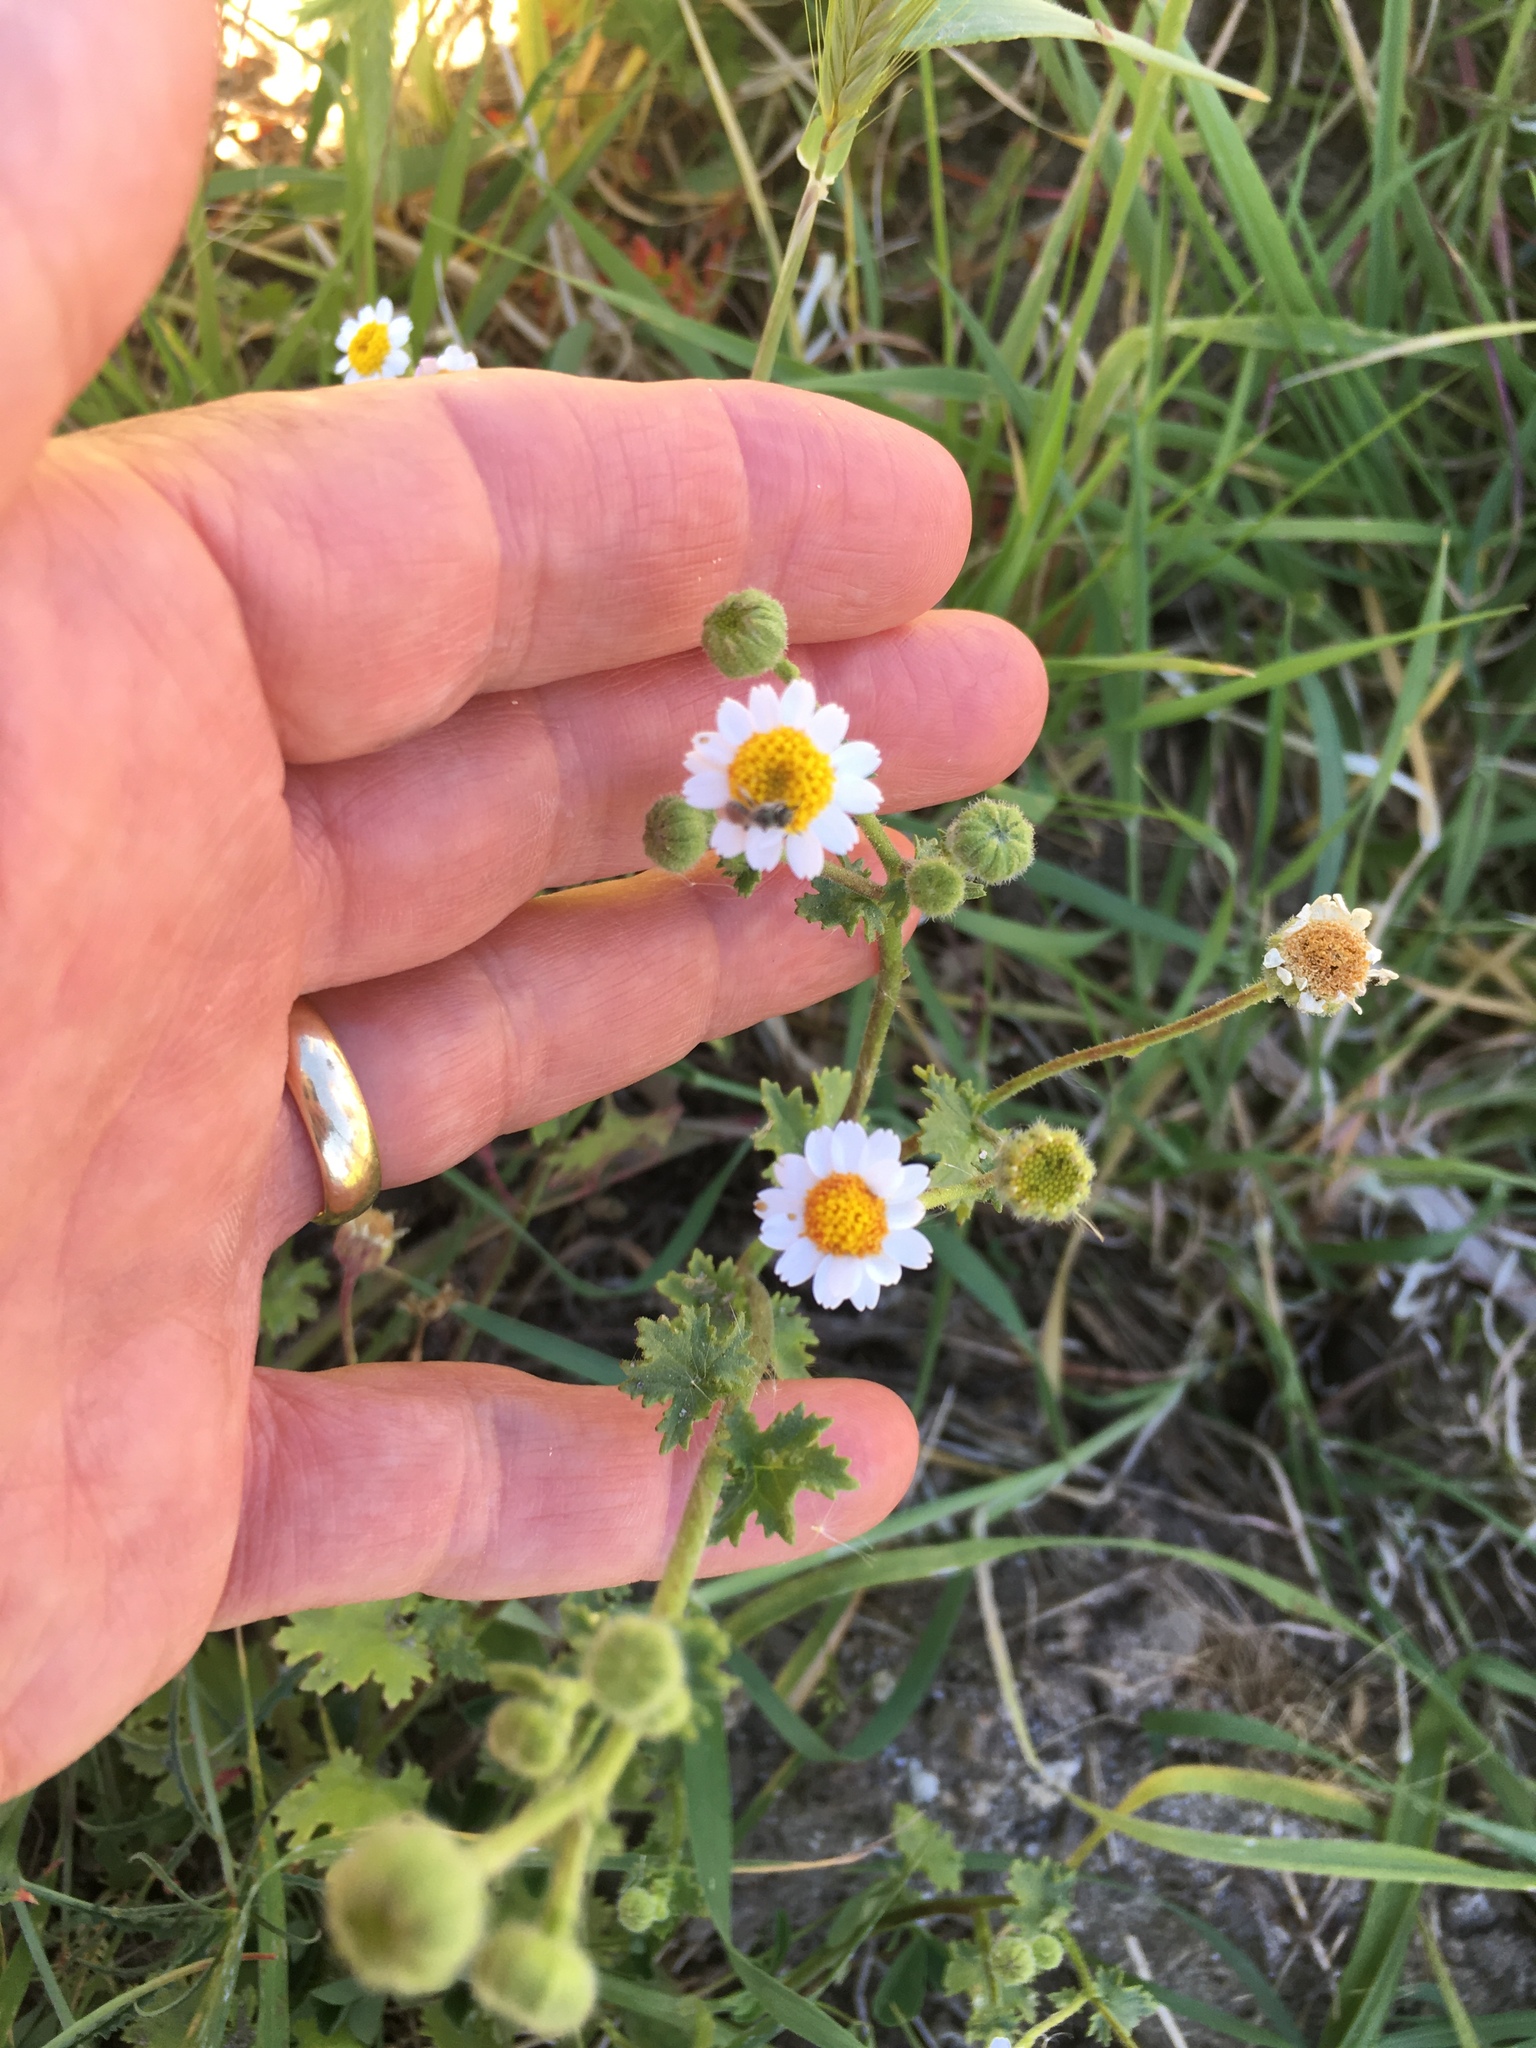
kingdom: Plantae
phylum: Tracheophyta
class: Magnoliopsida
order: Asterales
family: Asteraceae
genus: Laphamia
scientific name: Laphamia emoryi
